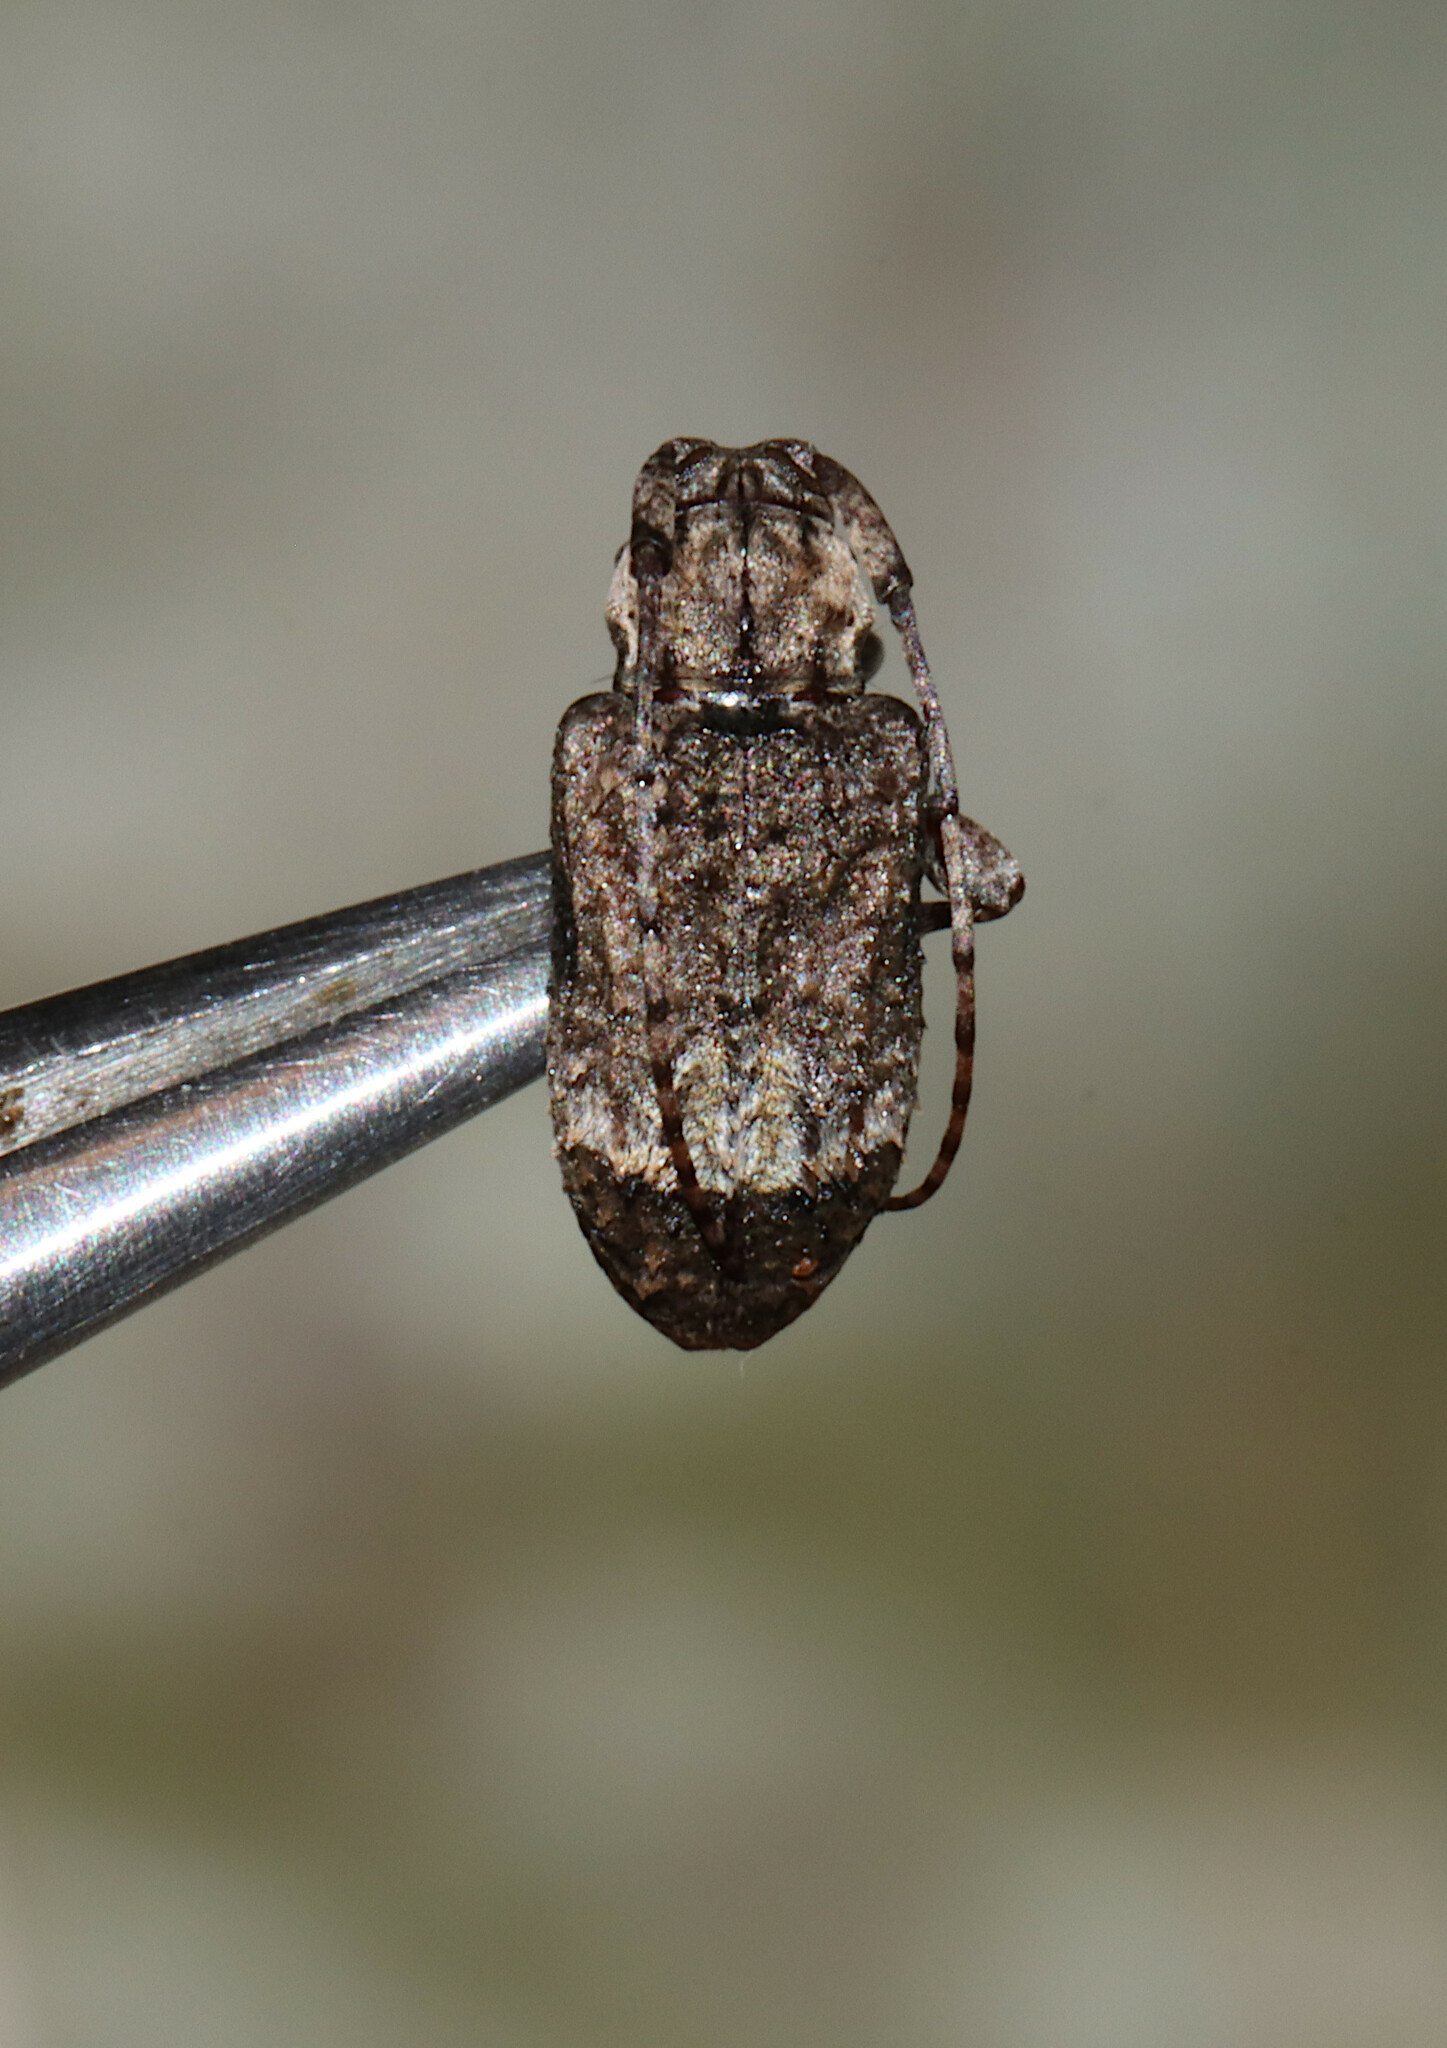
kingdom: Animalia
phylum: Arthropoda
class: Insecta
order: Coleoptera
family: Cerambycidae
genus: Leptostylus
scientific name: Leptostylus transversus
